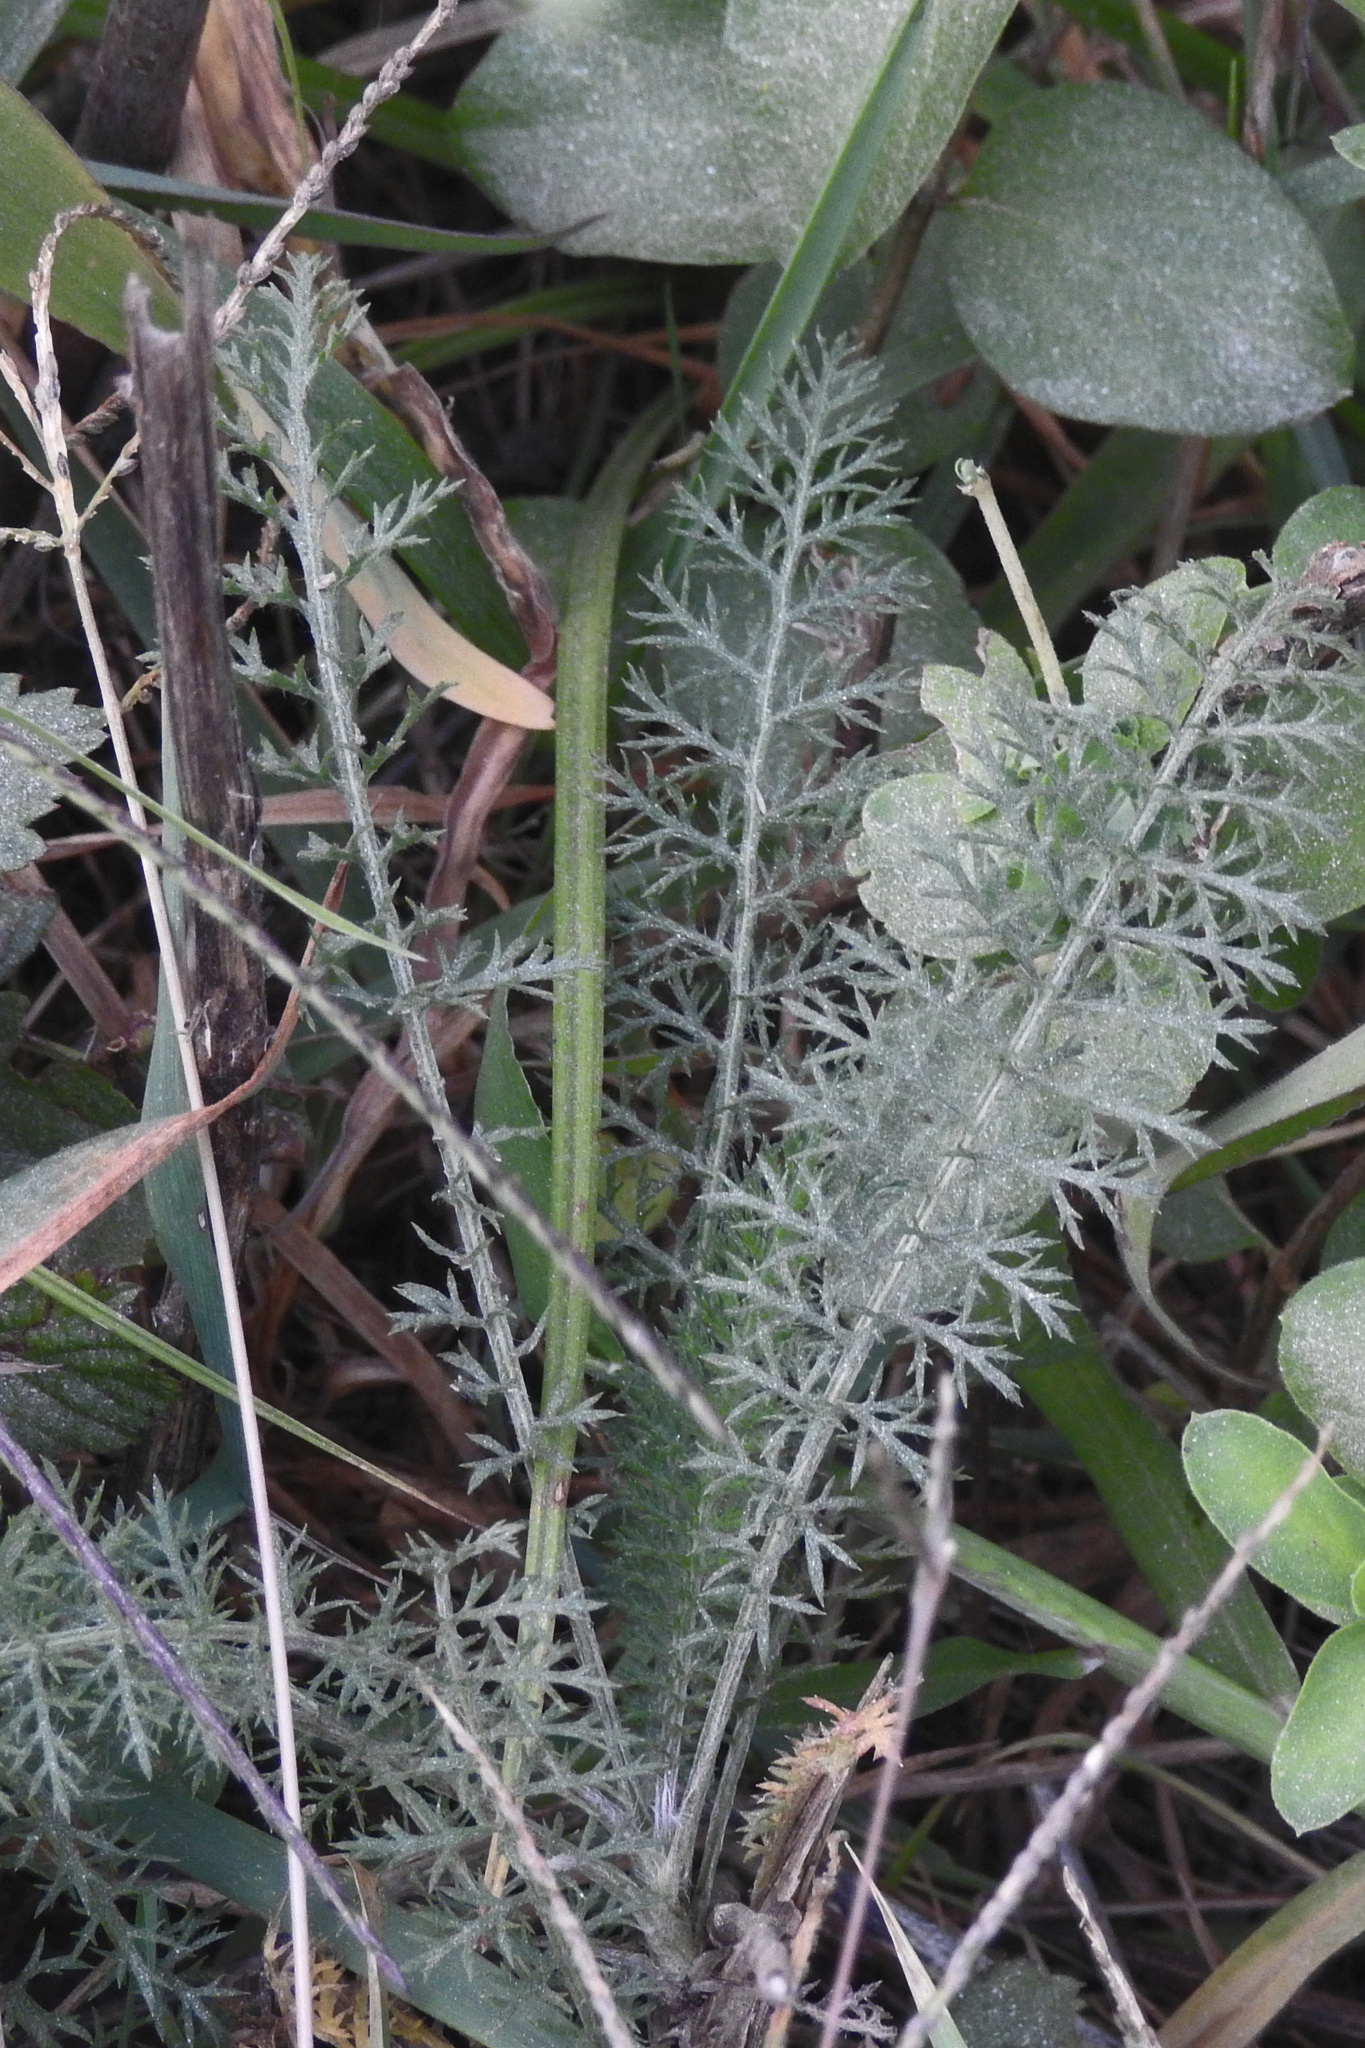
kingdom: Plantae
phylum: Tracheophyta
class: Magnoliopsida
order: Asterales
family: Asteraceae
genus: Achillea
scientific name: Achillea millefolium
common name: Yarrow
